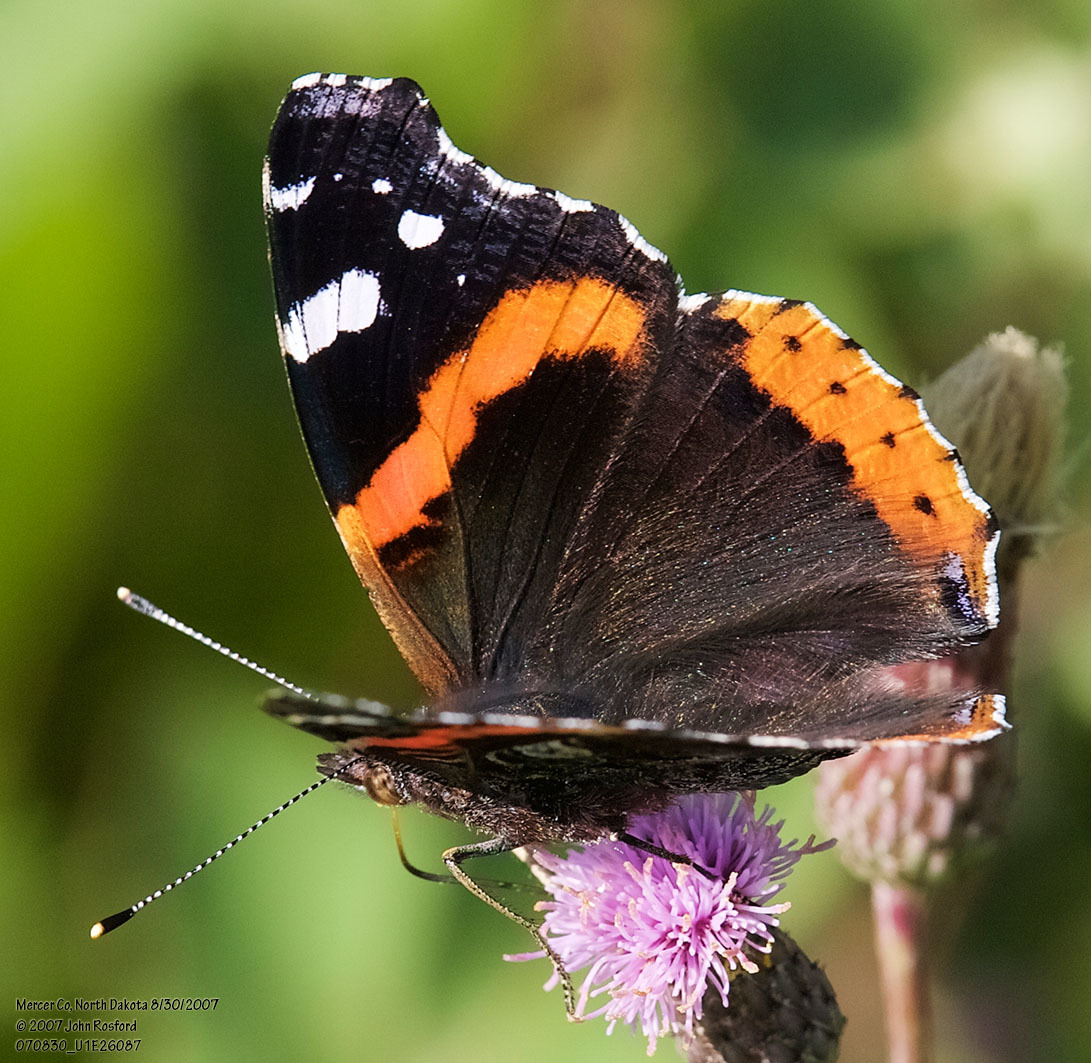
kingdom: Animalia
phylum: Arthropoda
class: Insecta
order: Lepidoptera
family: Nymphalidae
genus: Vanessa
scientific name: Vanessa atalanta
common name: Red admiral
